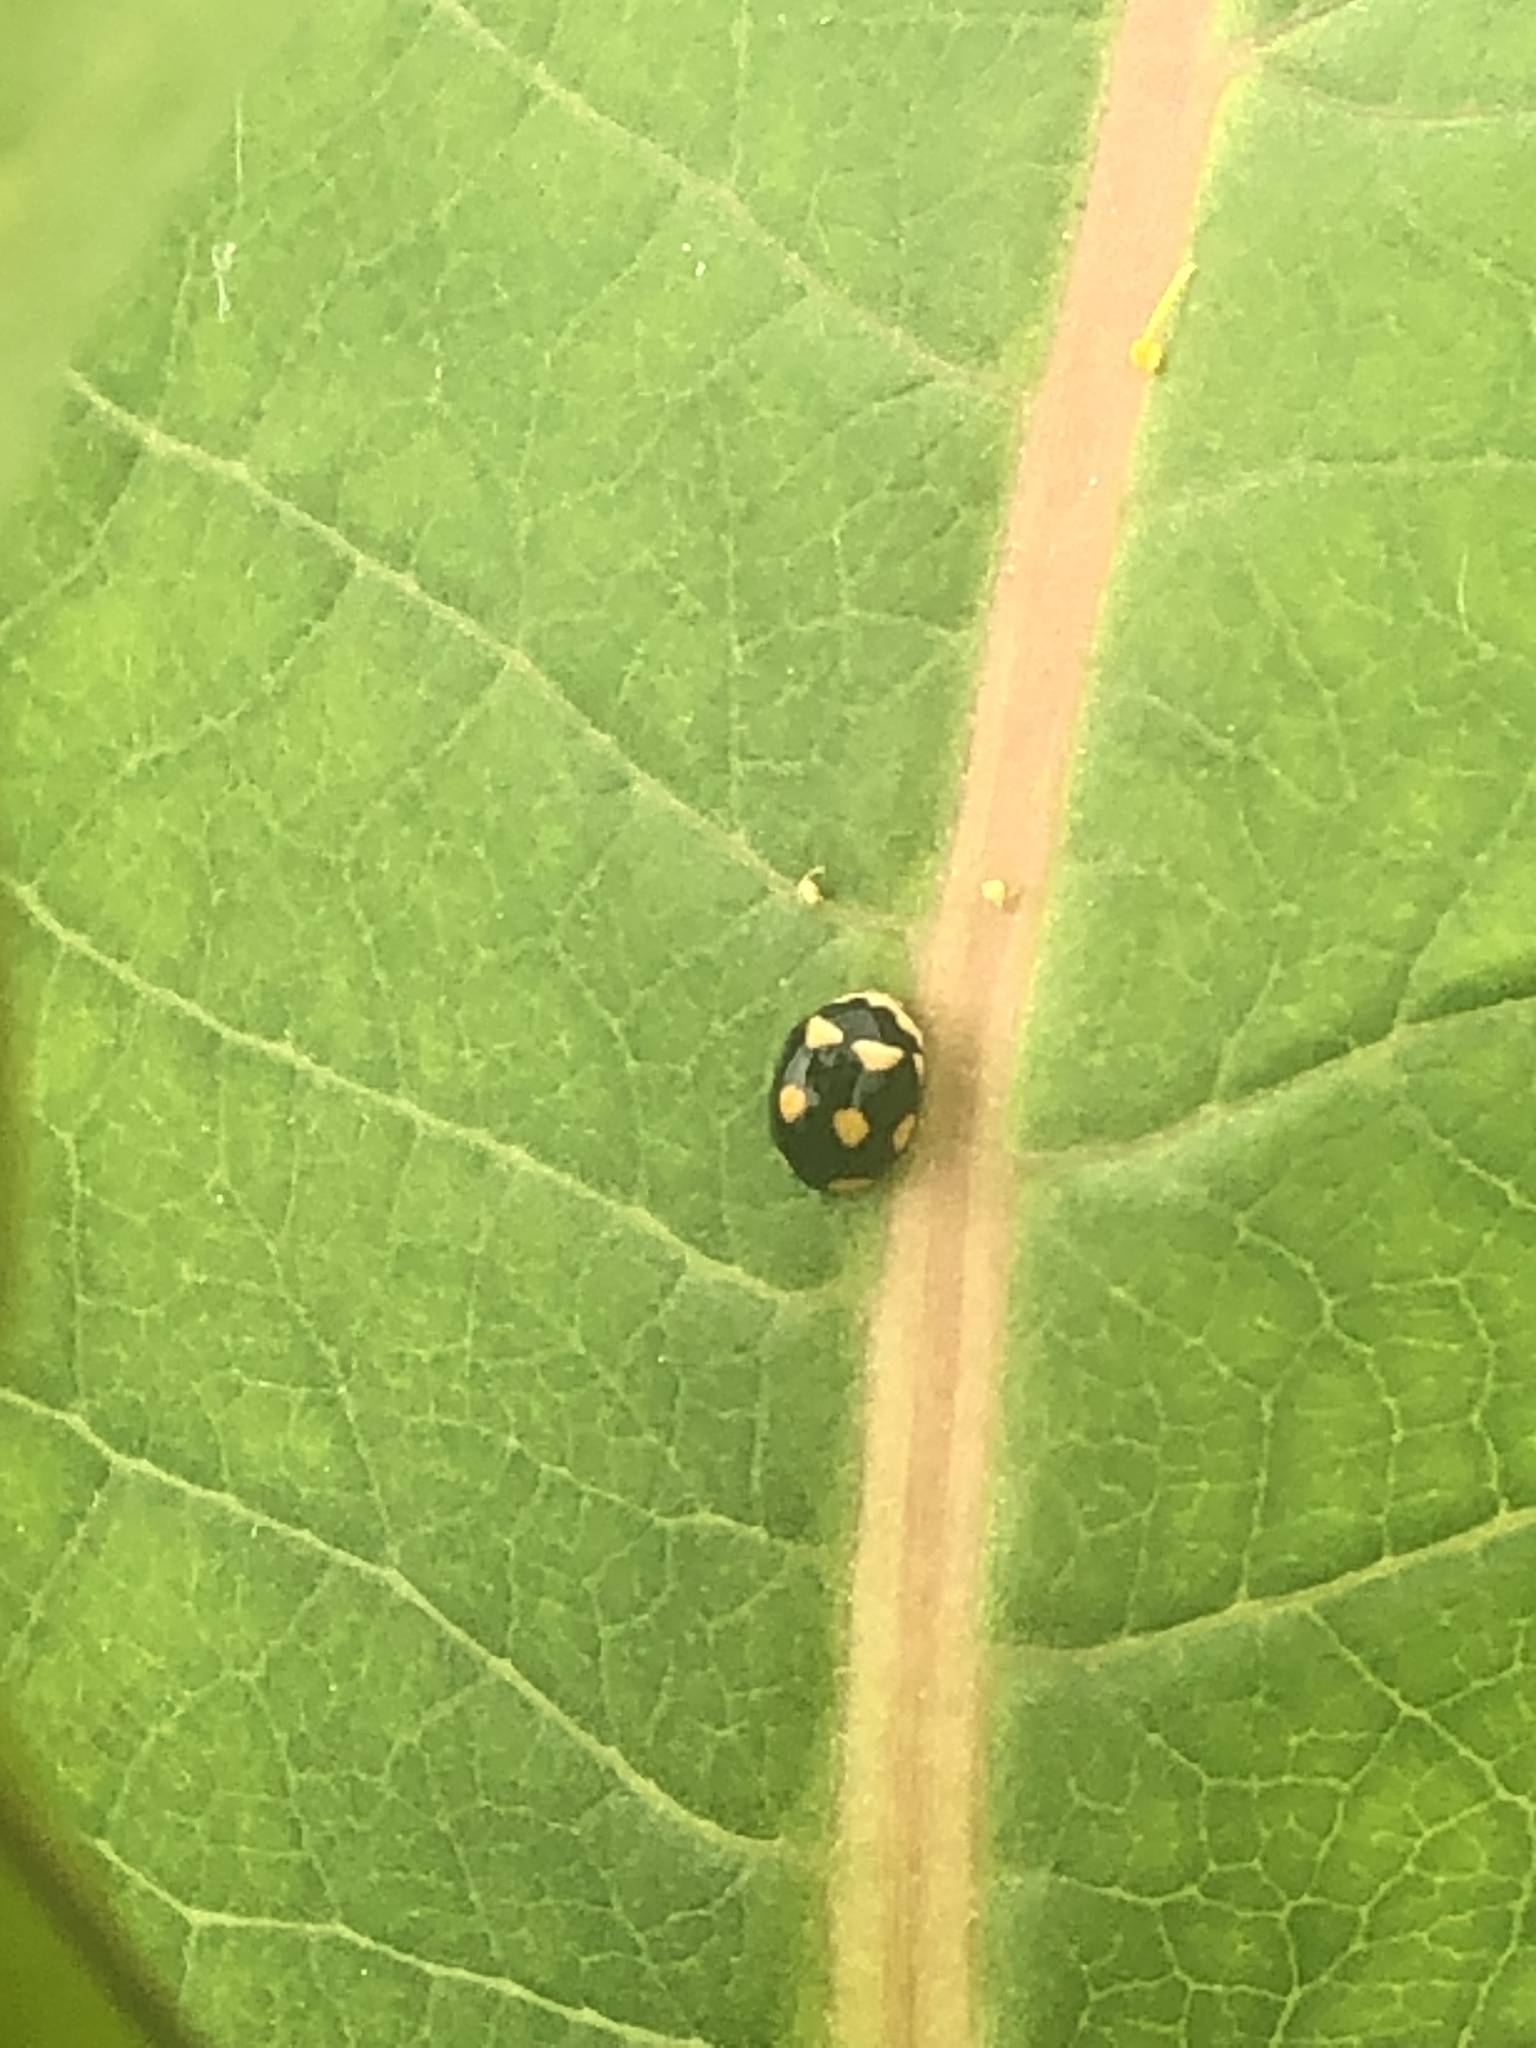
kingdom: Animalia
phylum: Arthropoda
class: Insecta
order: Coleoptera
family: Coccinellidae
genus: Brachiacantha
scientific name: Brachiacantha ursina
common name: Ursine spurleg lady beetle
